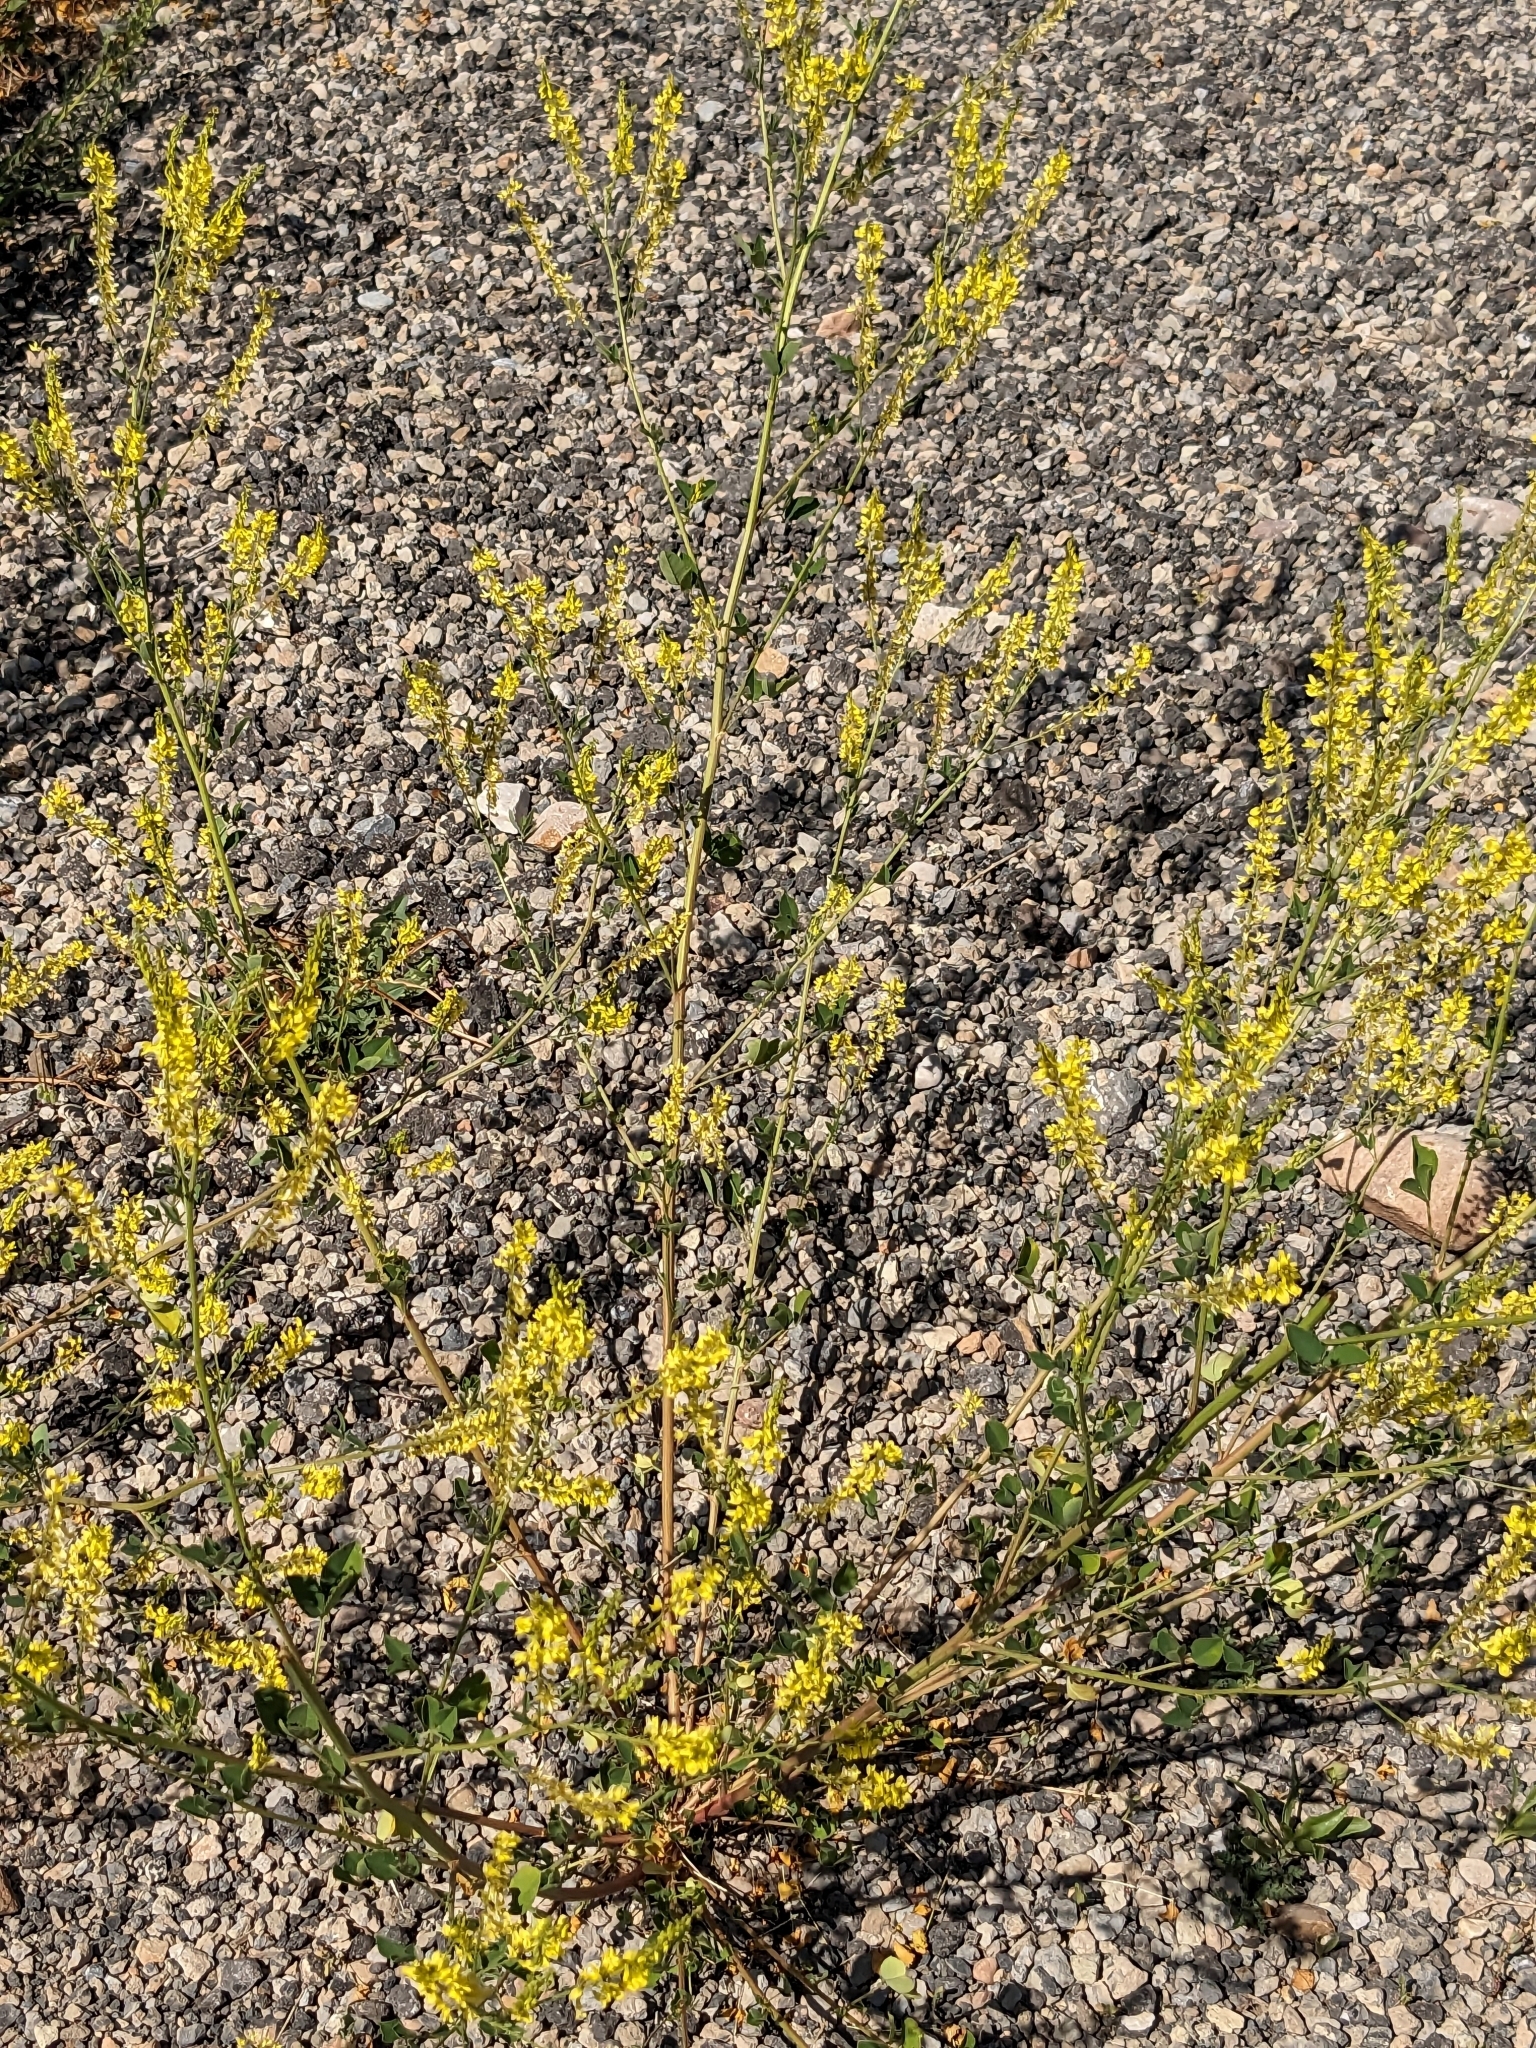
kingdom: Plantae
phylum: Tracheophyta
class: Magnoliopsida
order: Fabales
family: Fabaceae
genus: Melilotus
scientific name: Melilotus officinalis
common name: Sweetclover
